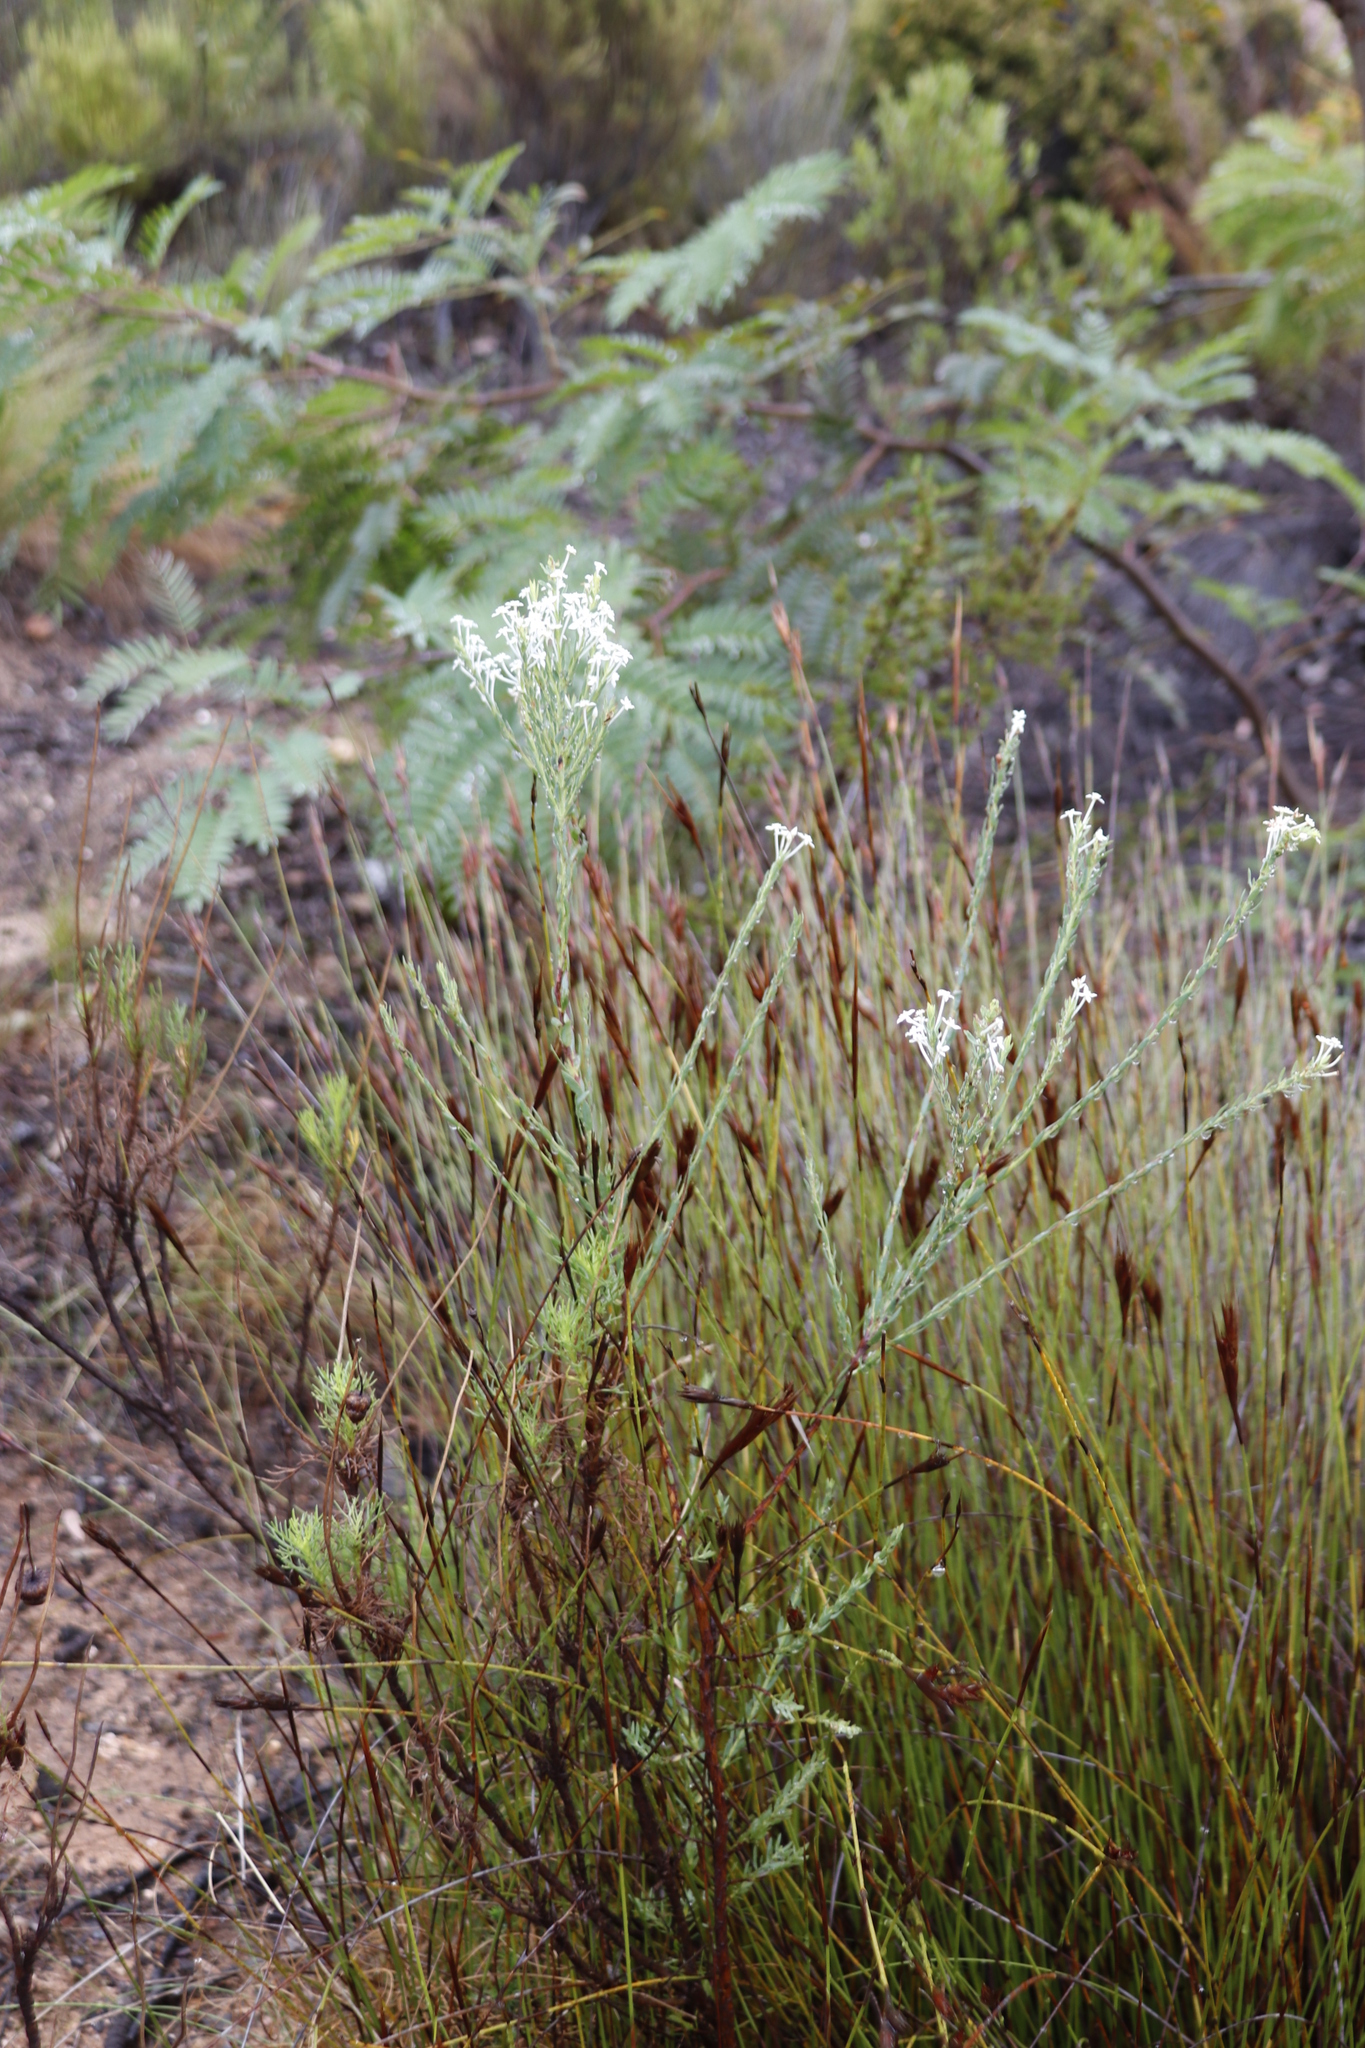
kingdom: Plantae
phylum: Tracheophyta
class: Magnoliopsida
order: Malvales
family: Thymelaeaceae
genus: Struthiola
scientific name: Struthiola myrsinites
